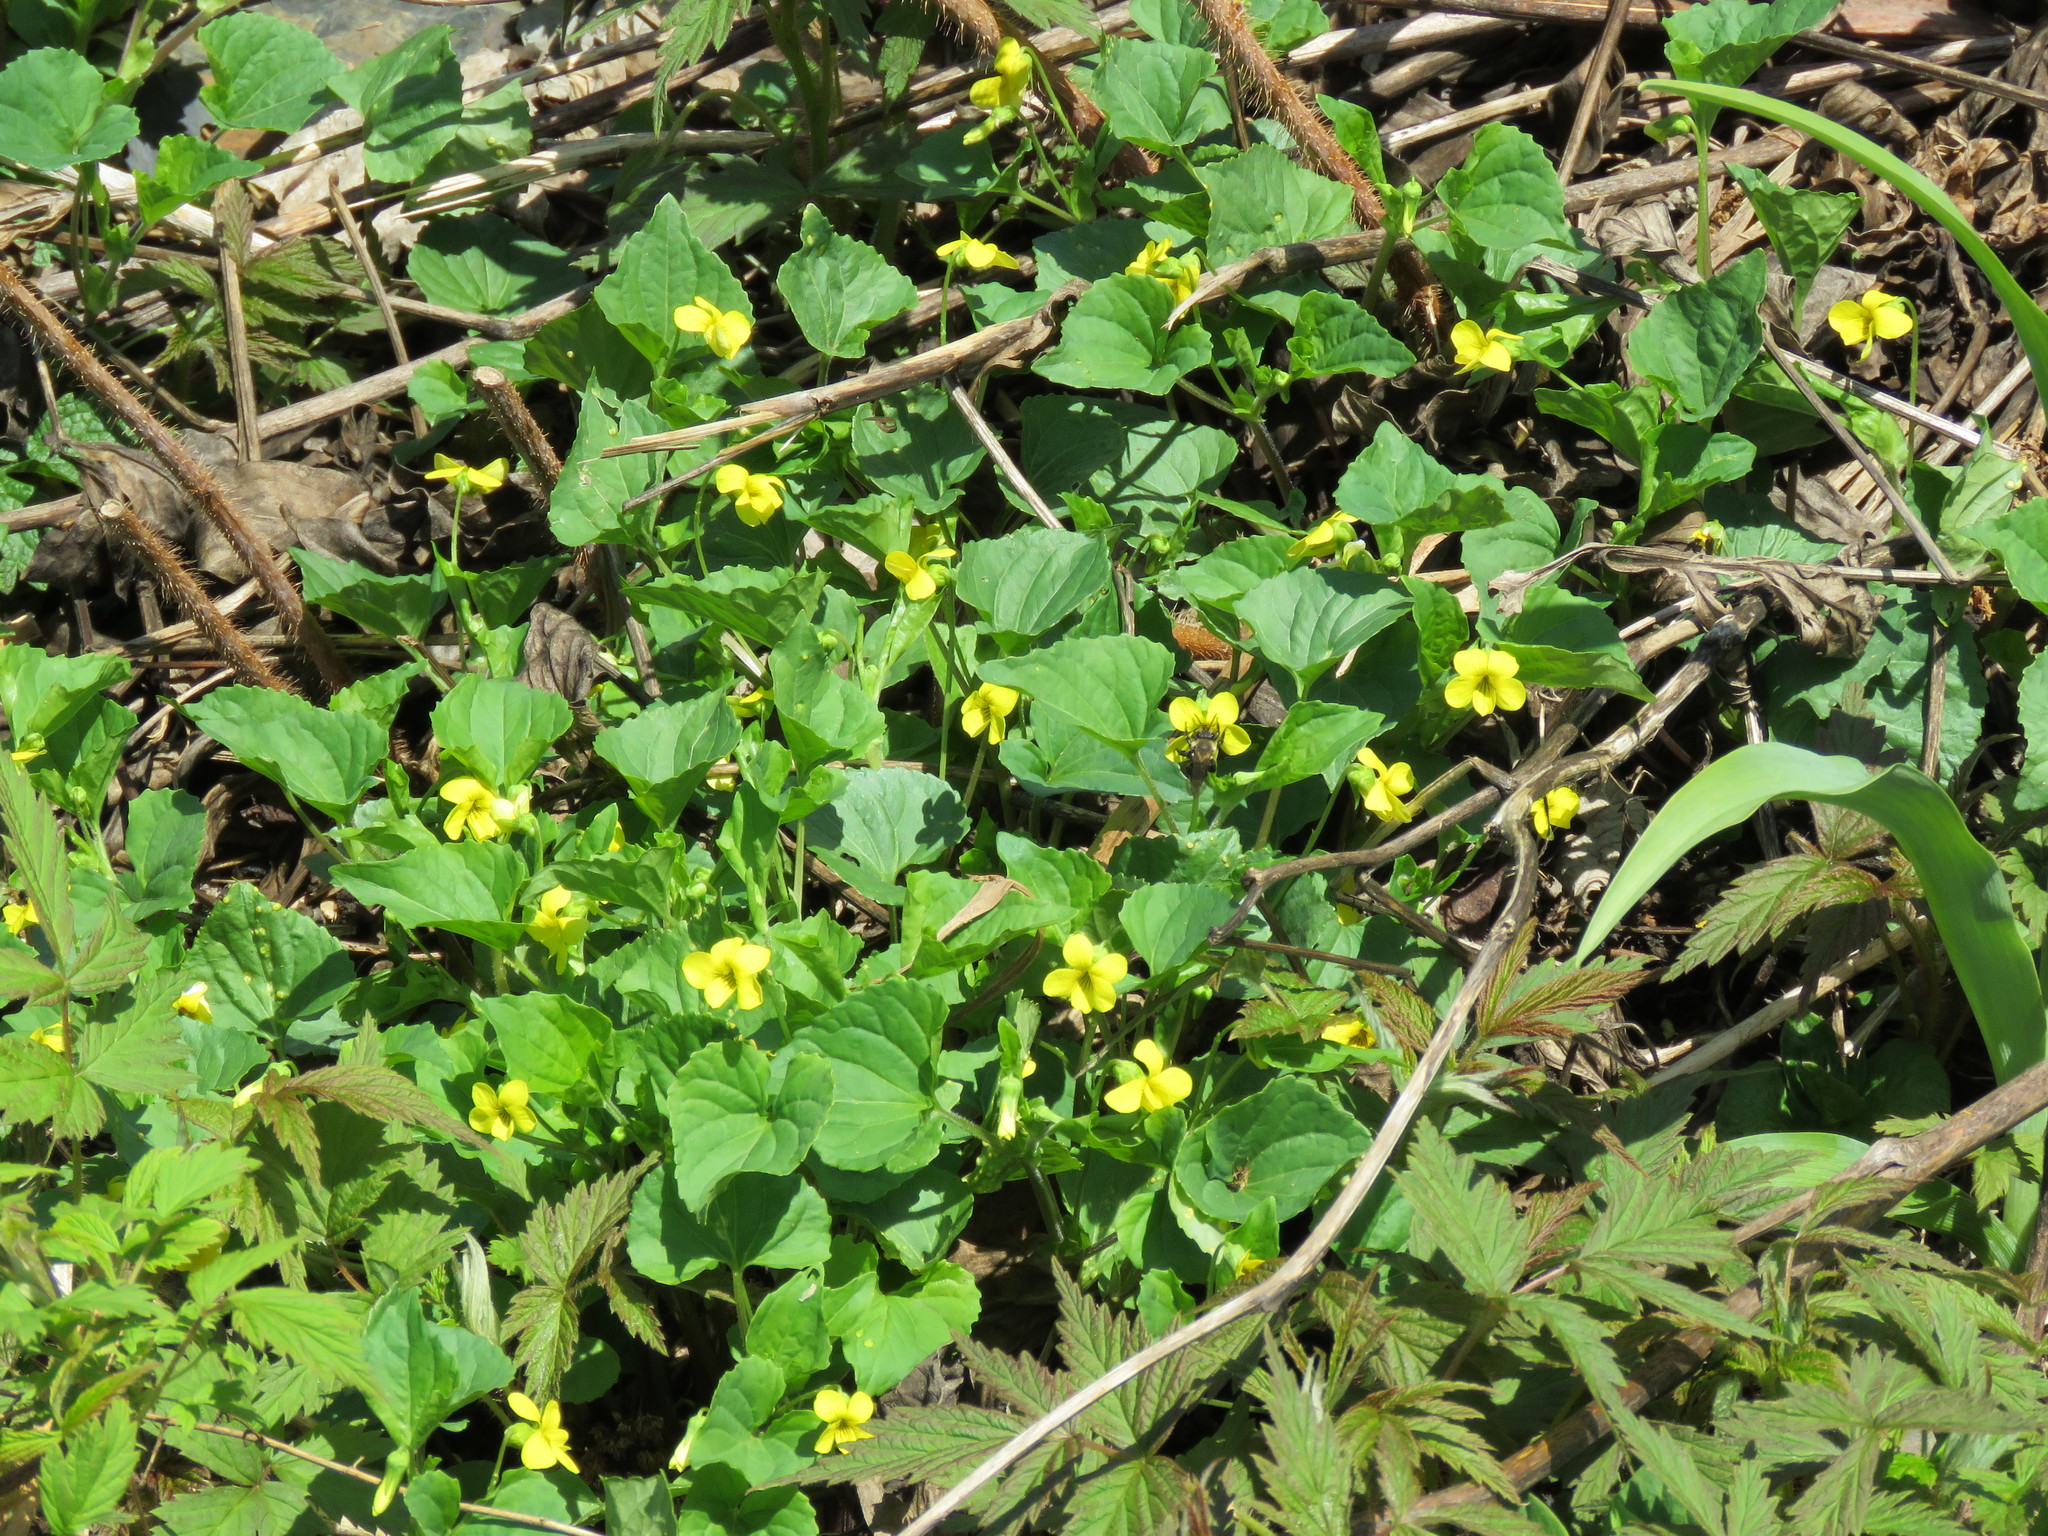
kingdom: Plantae
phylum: Tracheophyta
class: Magnoliopsida
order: Malpighiales
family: Violaceae
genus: Viola
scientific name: Viola eriocarpa
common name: Smooth yellow violet
